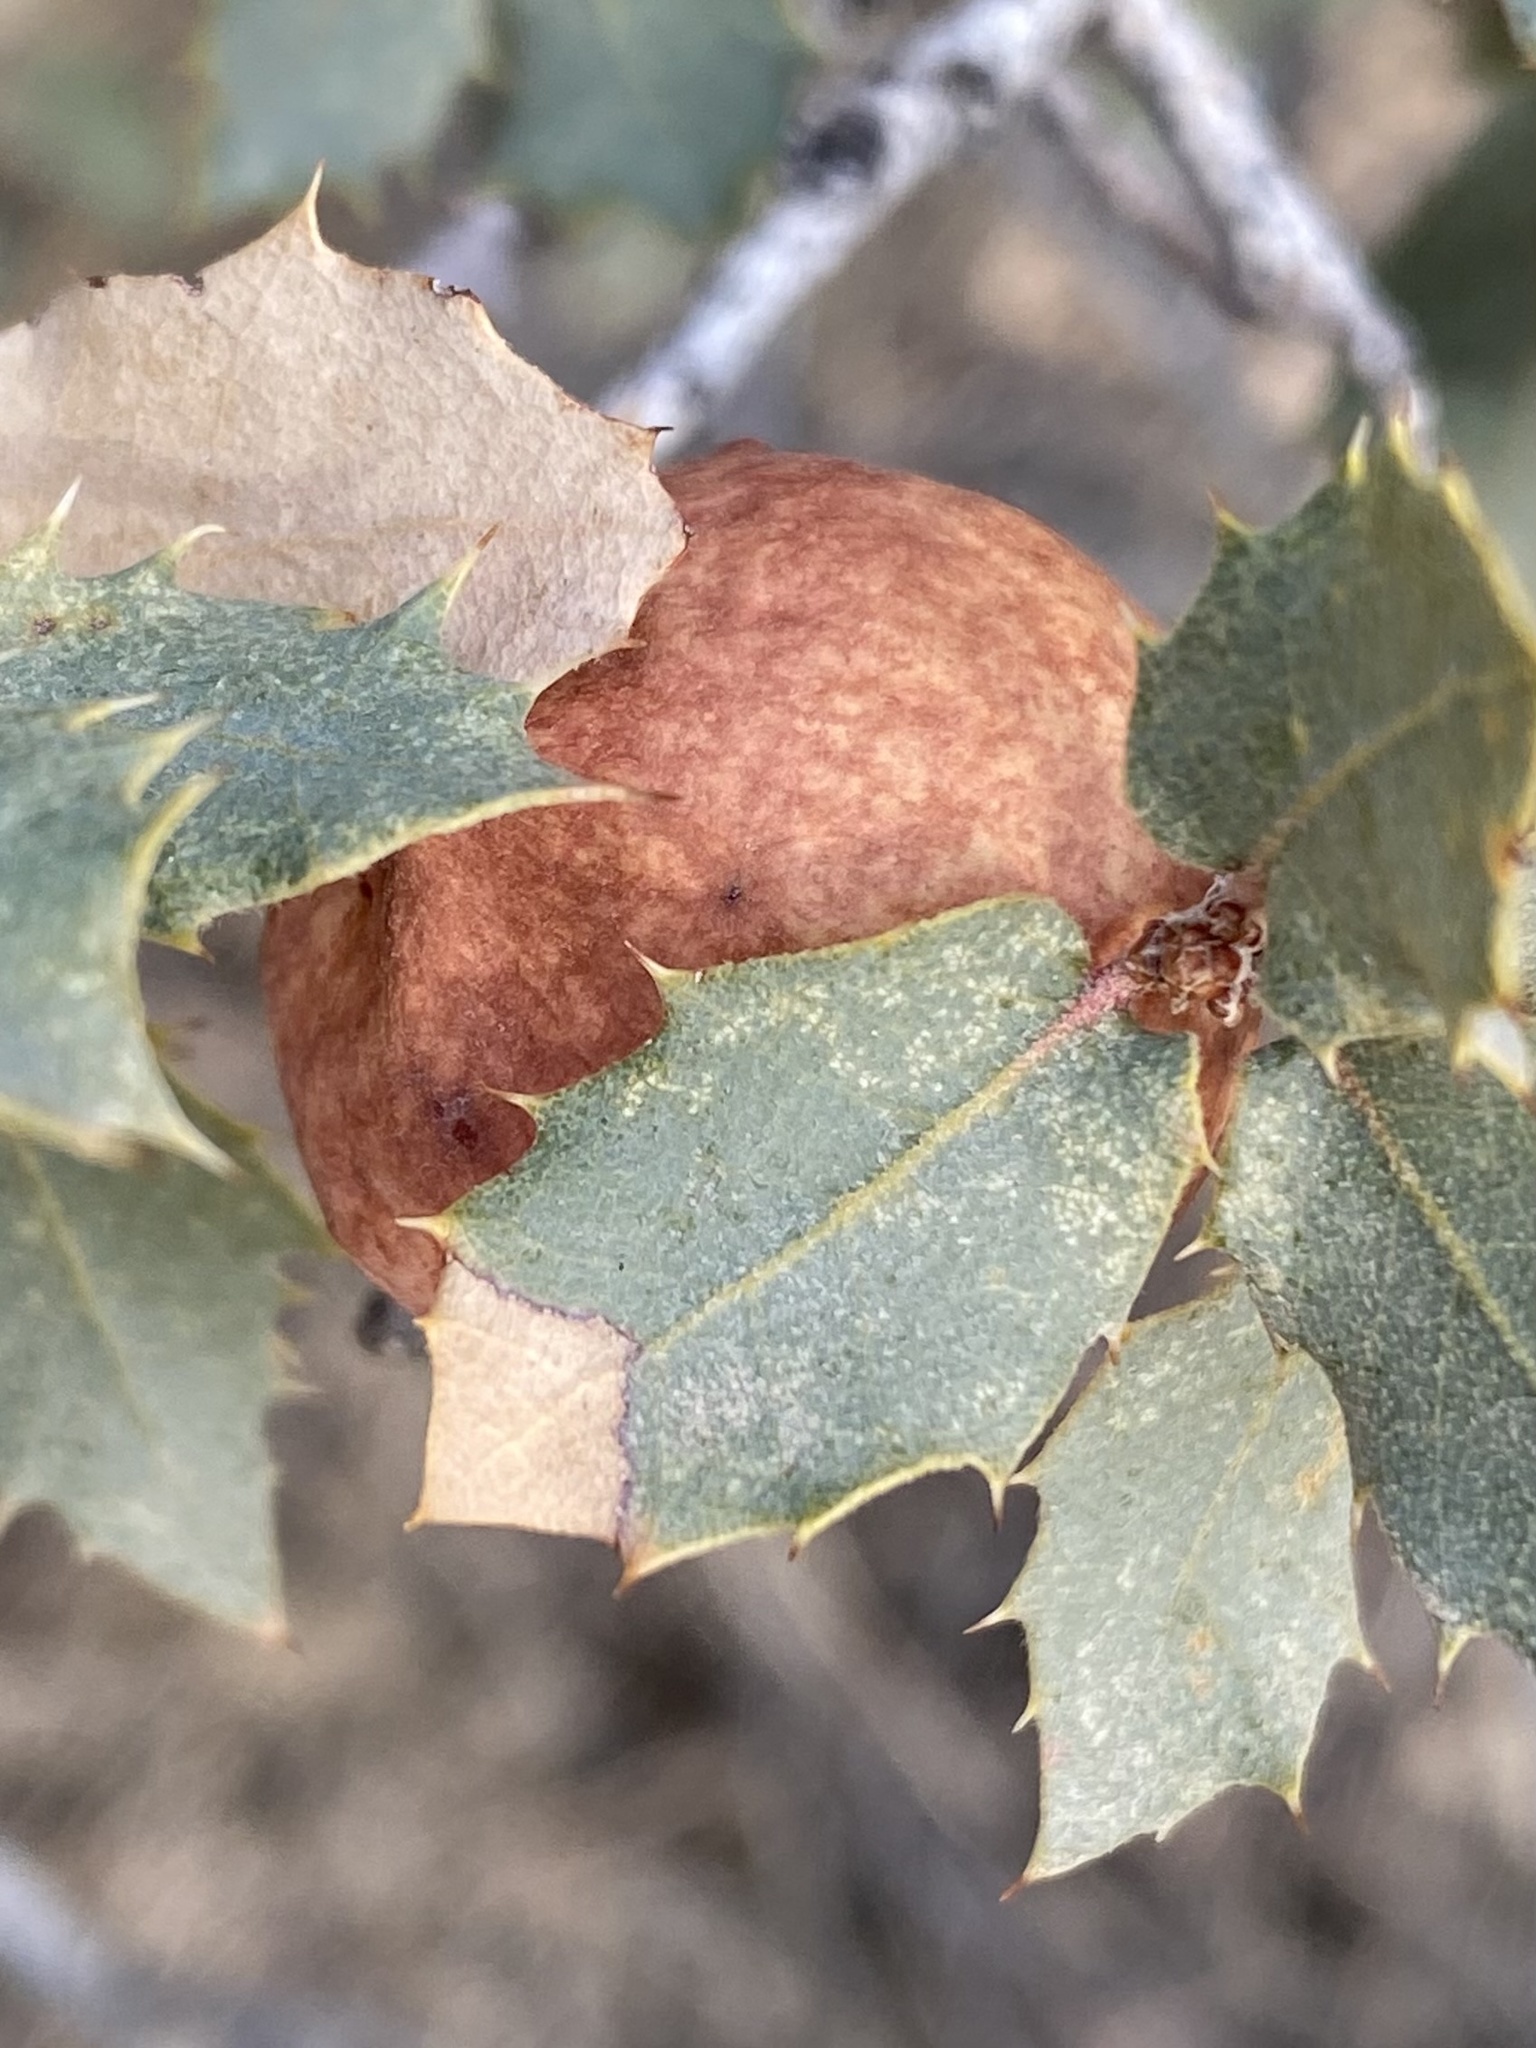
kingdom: Animalia
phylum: Arthropoda
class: Insecta
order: Hymenoptera
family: Cynipidae
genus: Atrusca
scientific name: Atrusca
